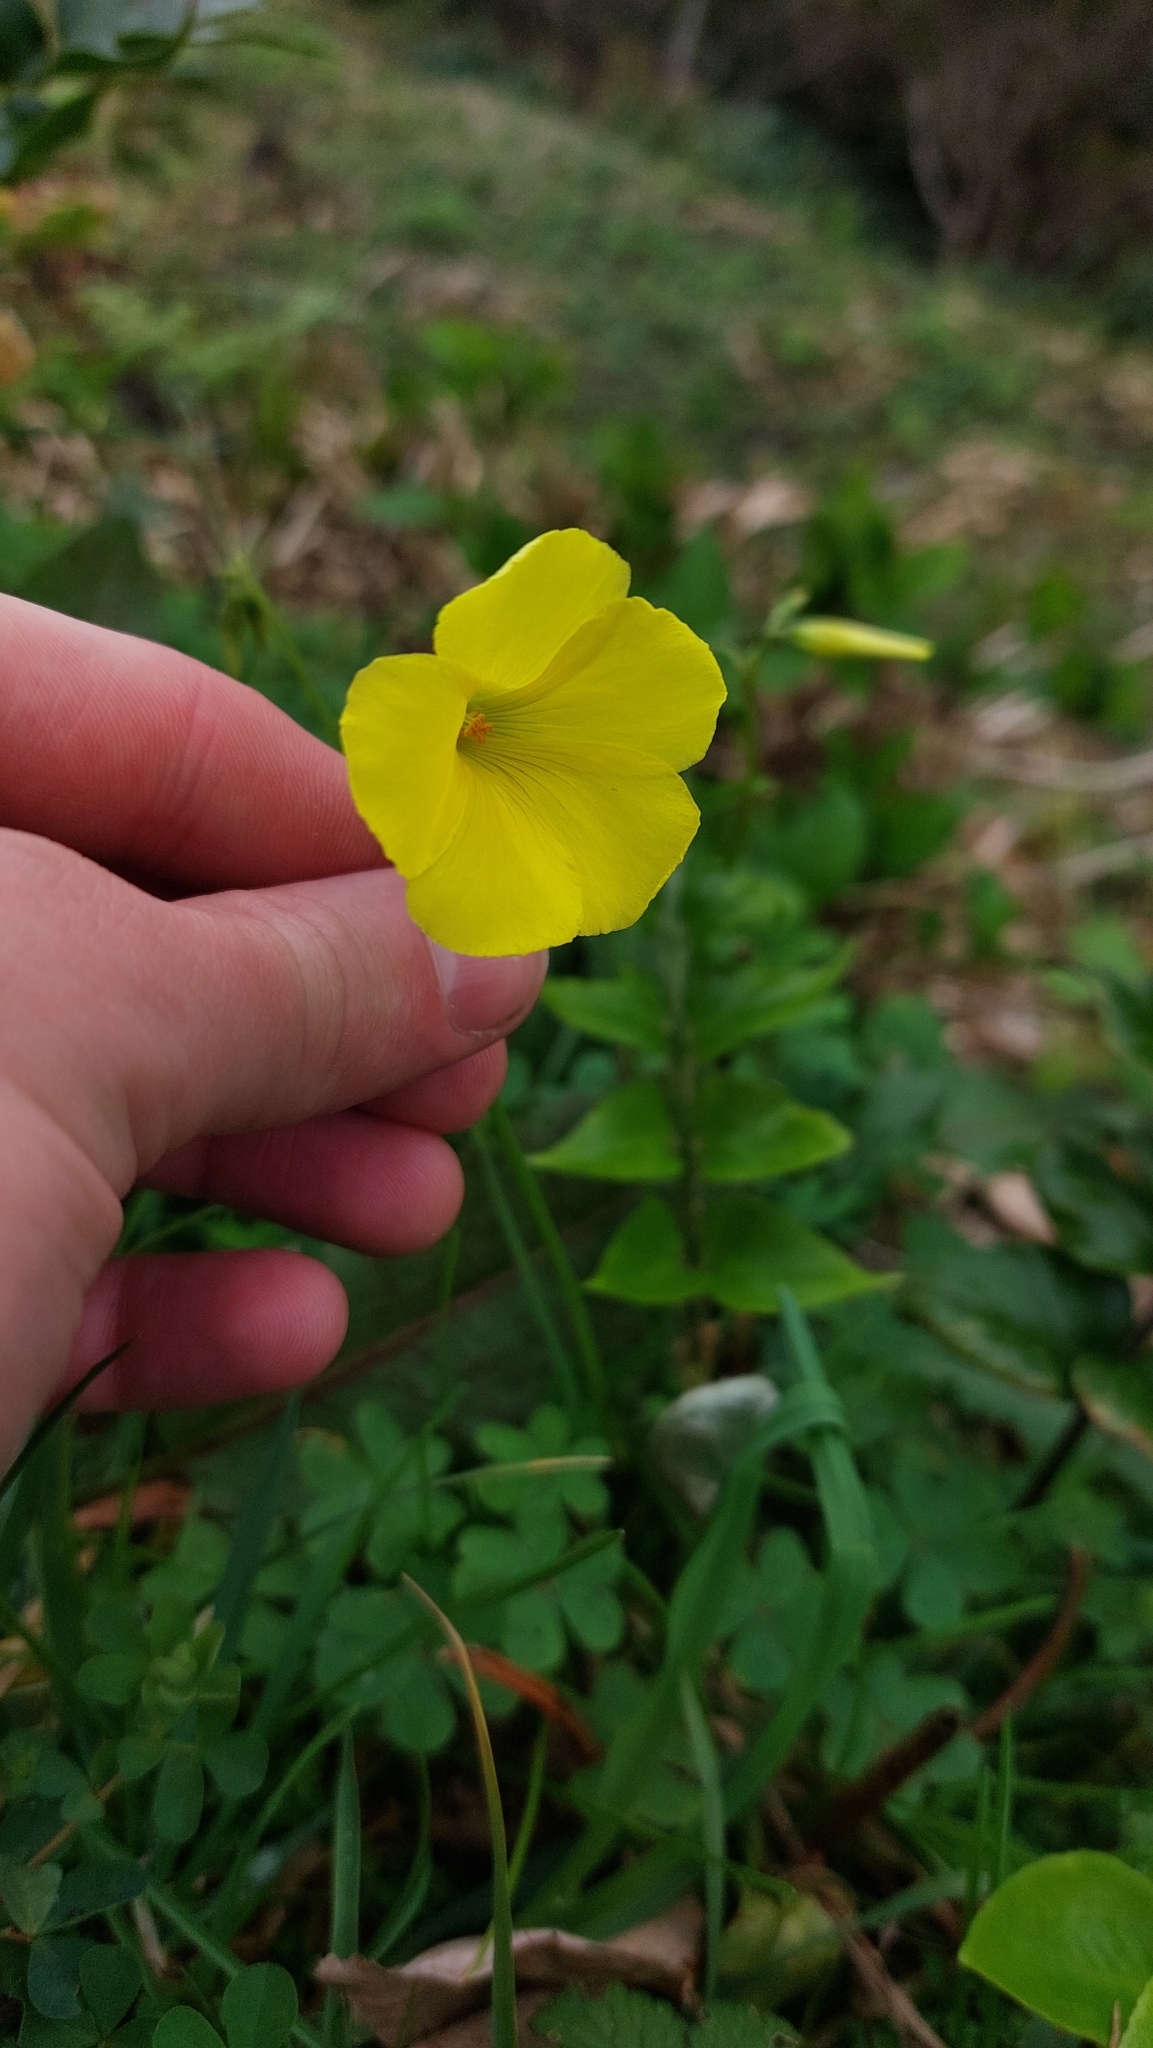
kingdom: Plantae
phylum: Tracheophyta
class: Magnoliopsida
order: Oxalidales
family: Oxalidaceae
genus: Oxalis
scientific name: Oxalis pes-caprae
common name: Bermuda-buttercup
